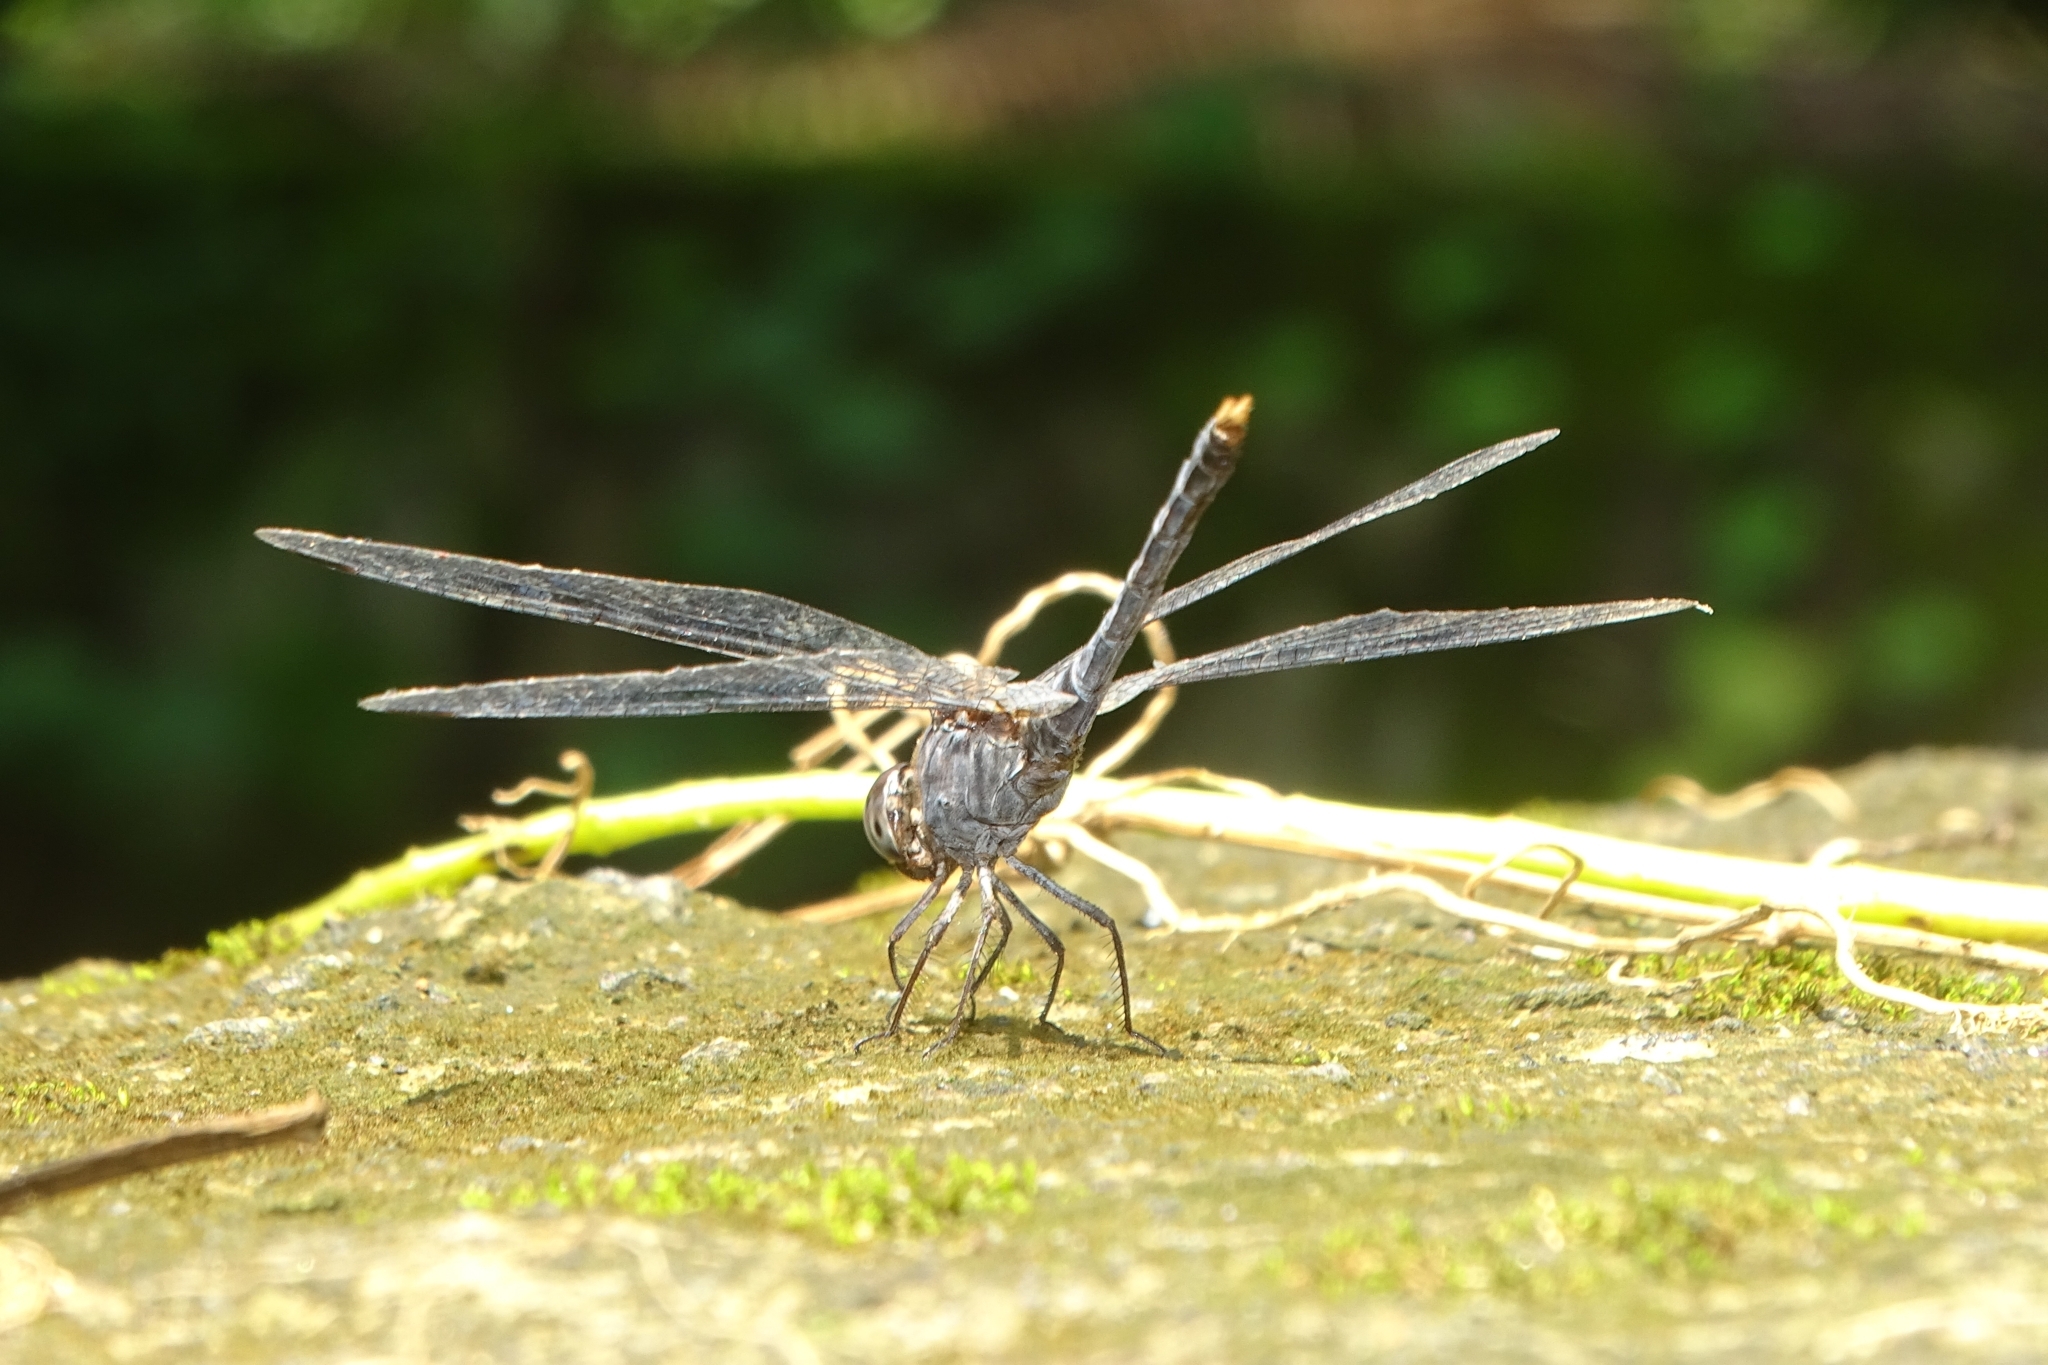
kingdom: Animalia
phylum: Arthropoda
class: Insecta
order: Odonata
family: Libellulidae
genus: Bradinopyga
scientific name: Bradinopyga geminata
